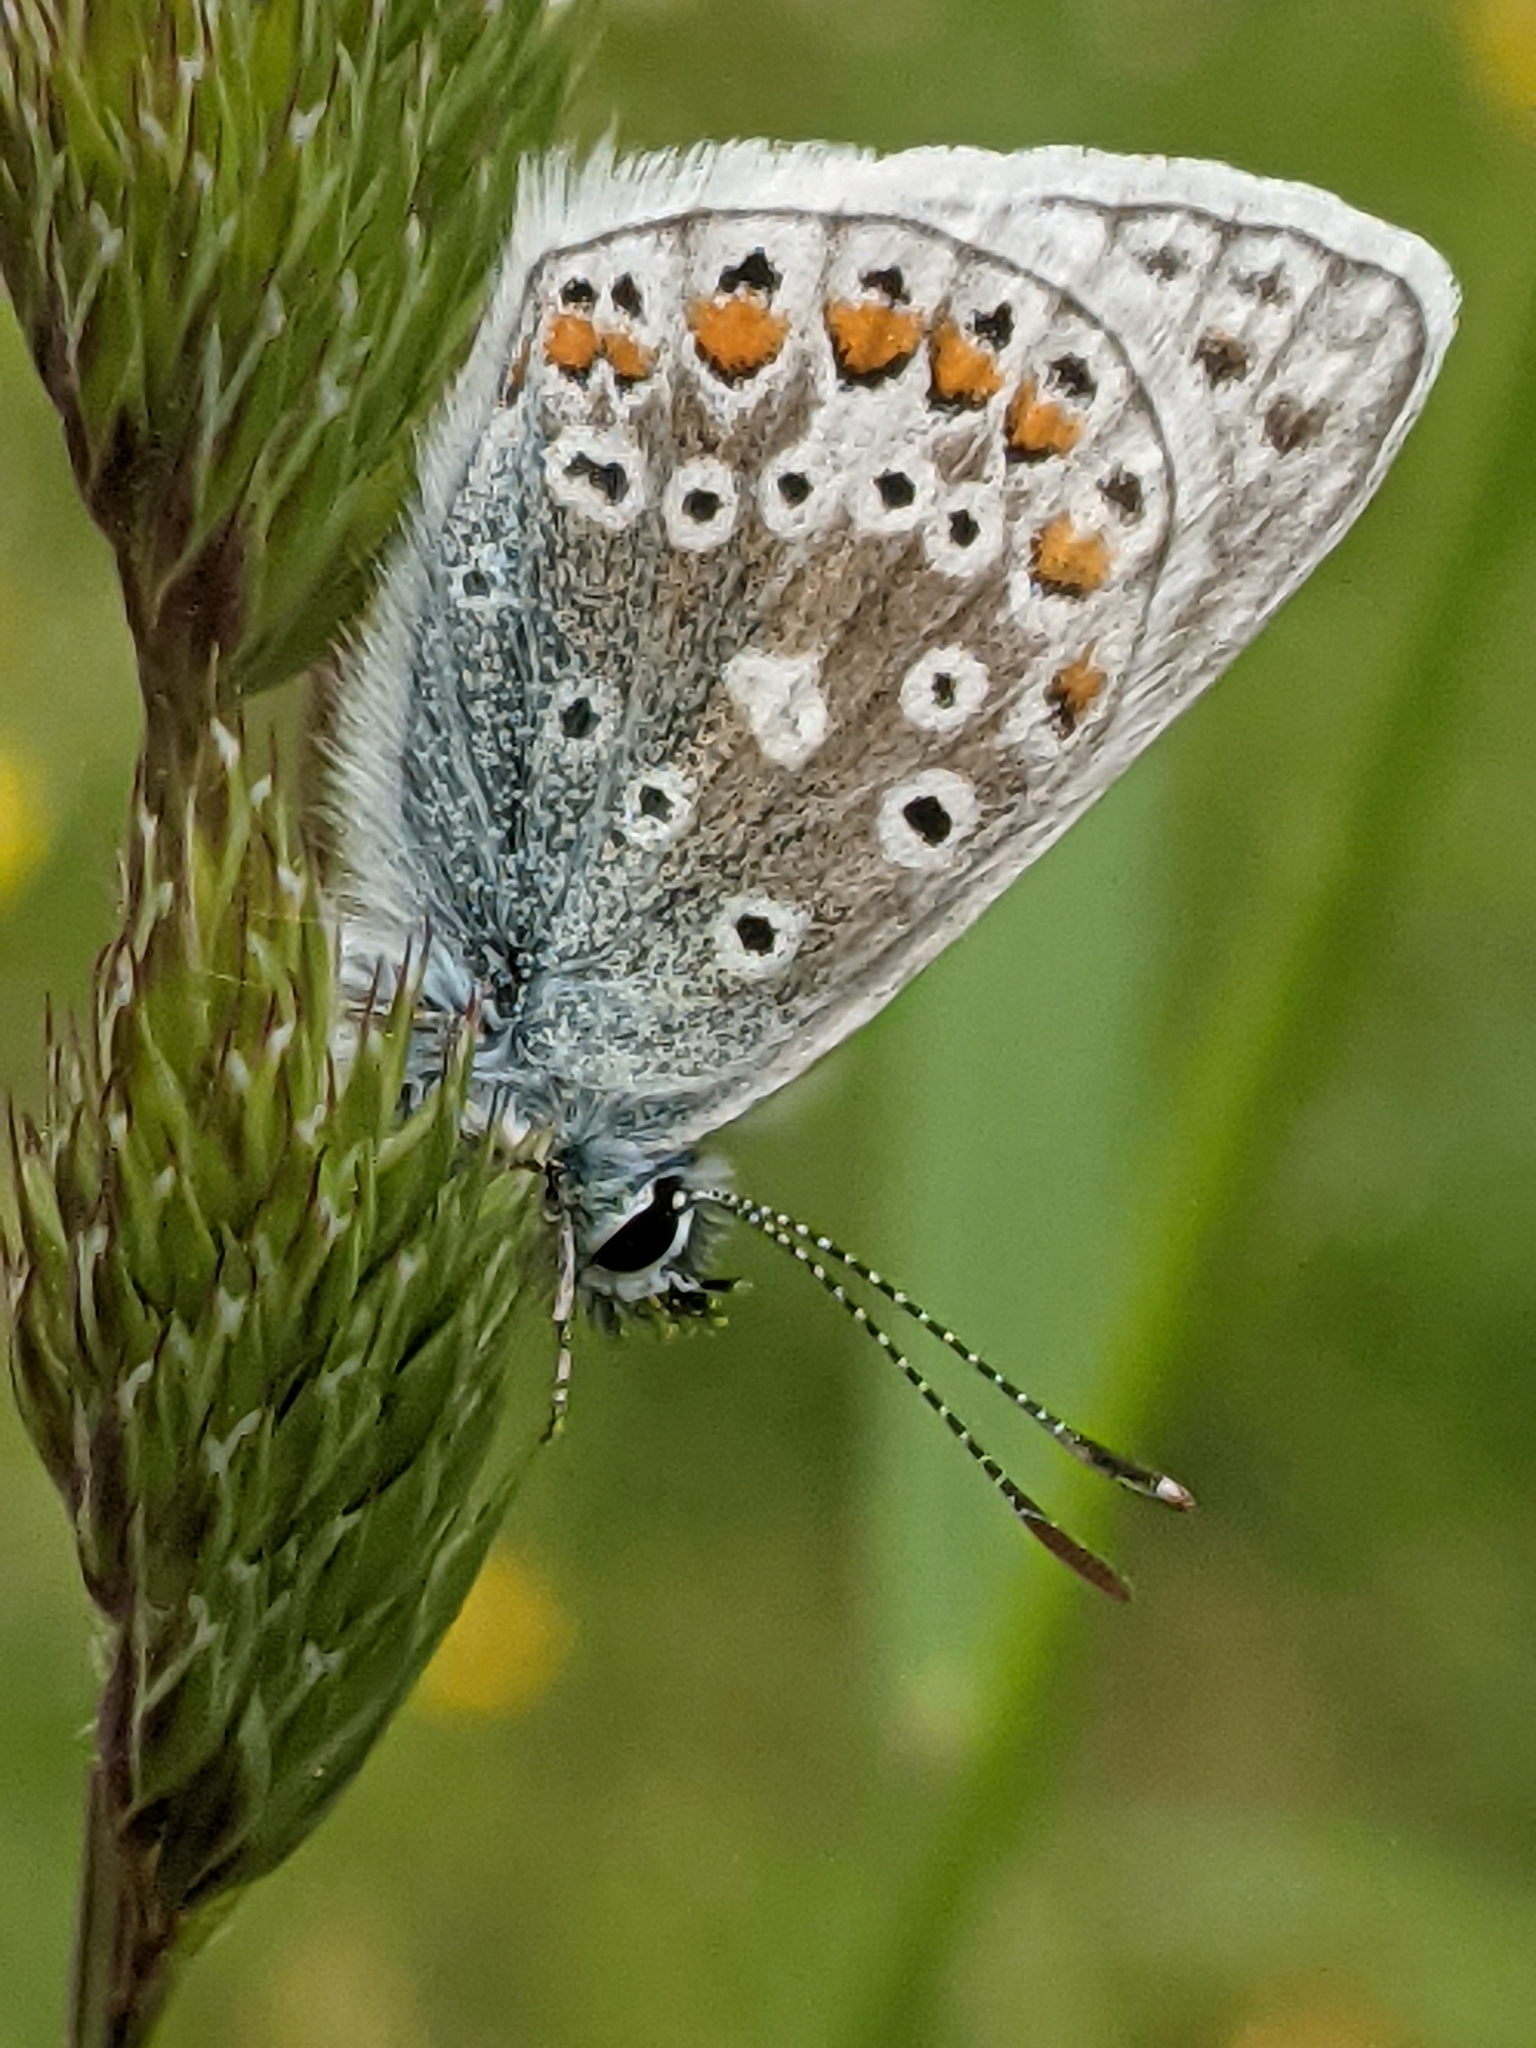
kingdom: Animalia
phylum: Arthropoda
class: Insecta
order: Lepidoptera
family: Lycaenidae
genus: Polyommatus
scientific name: Polyommatus icarus
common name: Common blue
